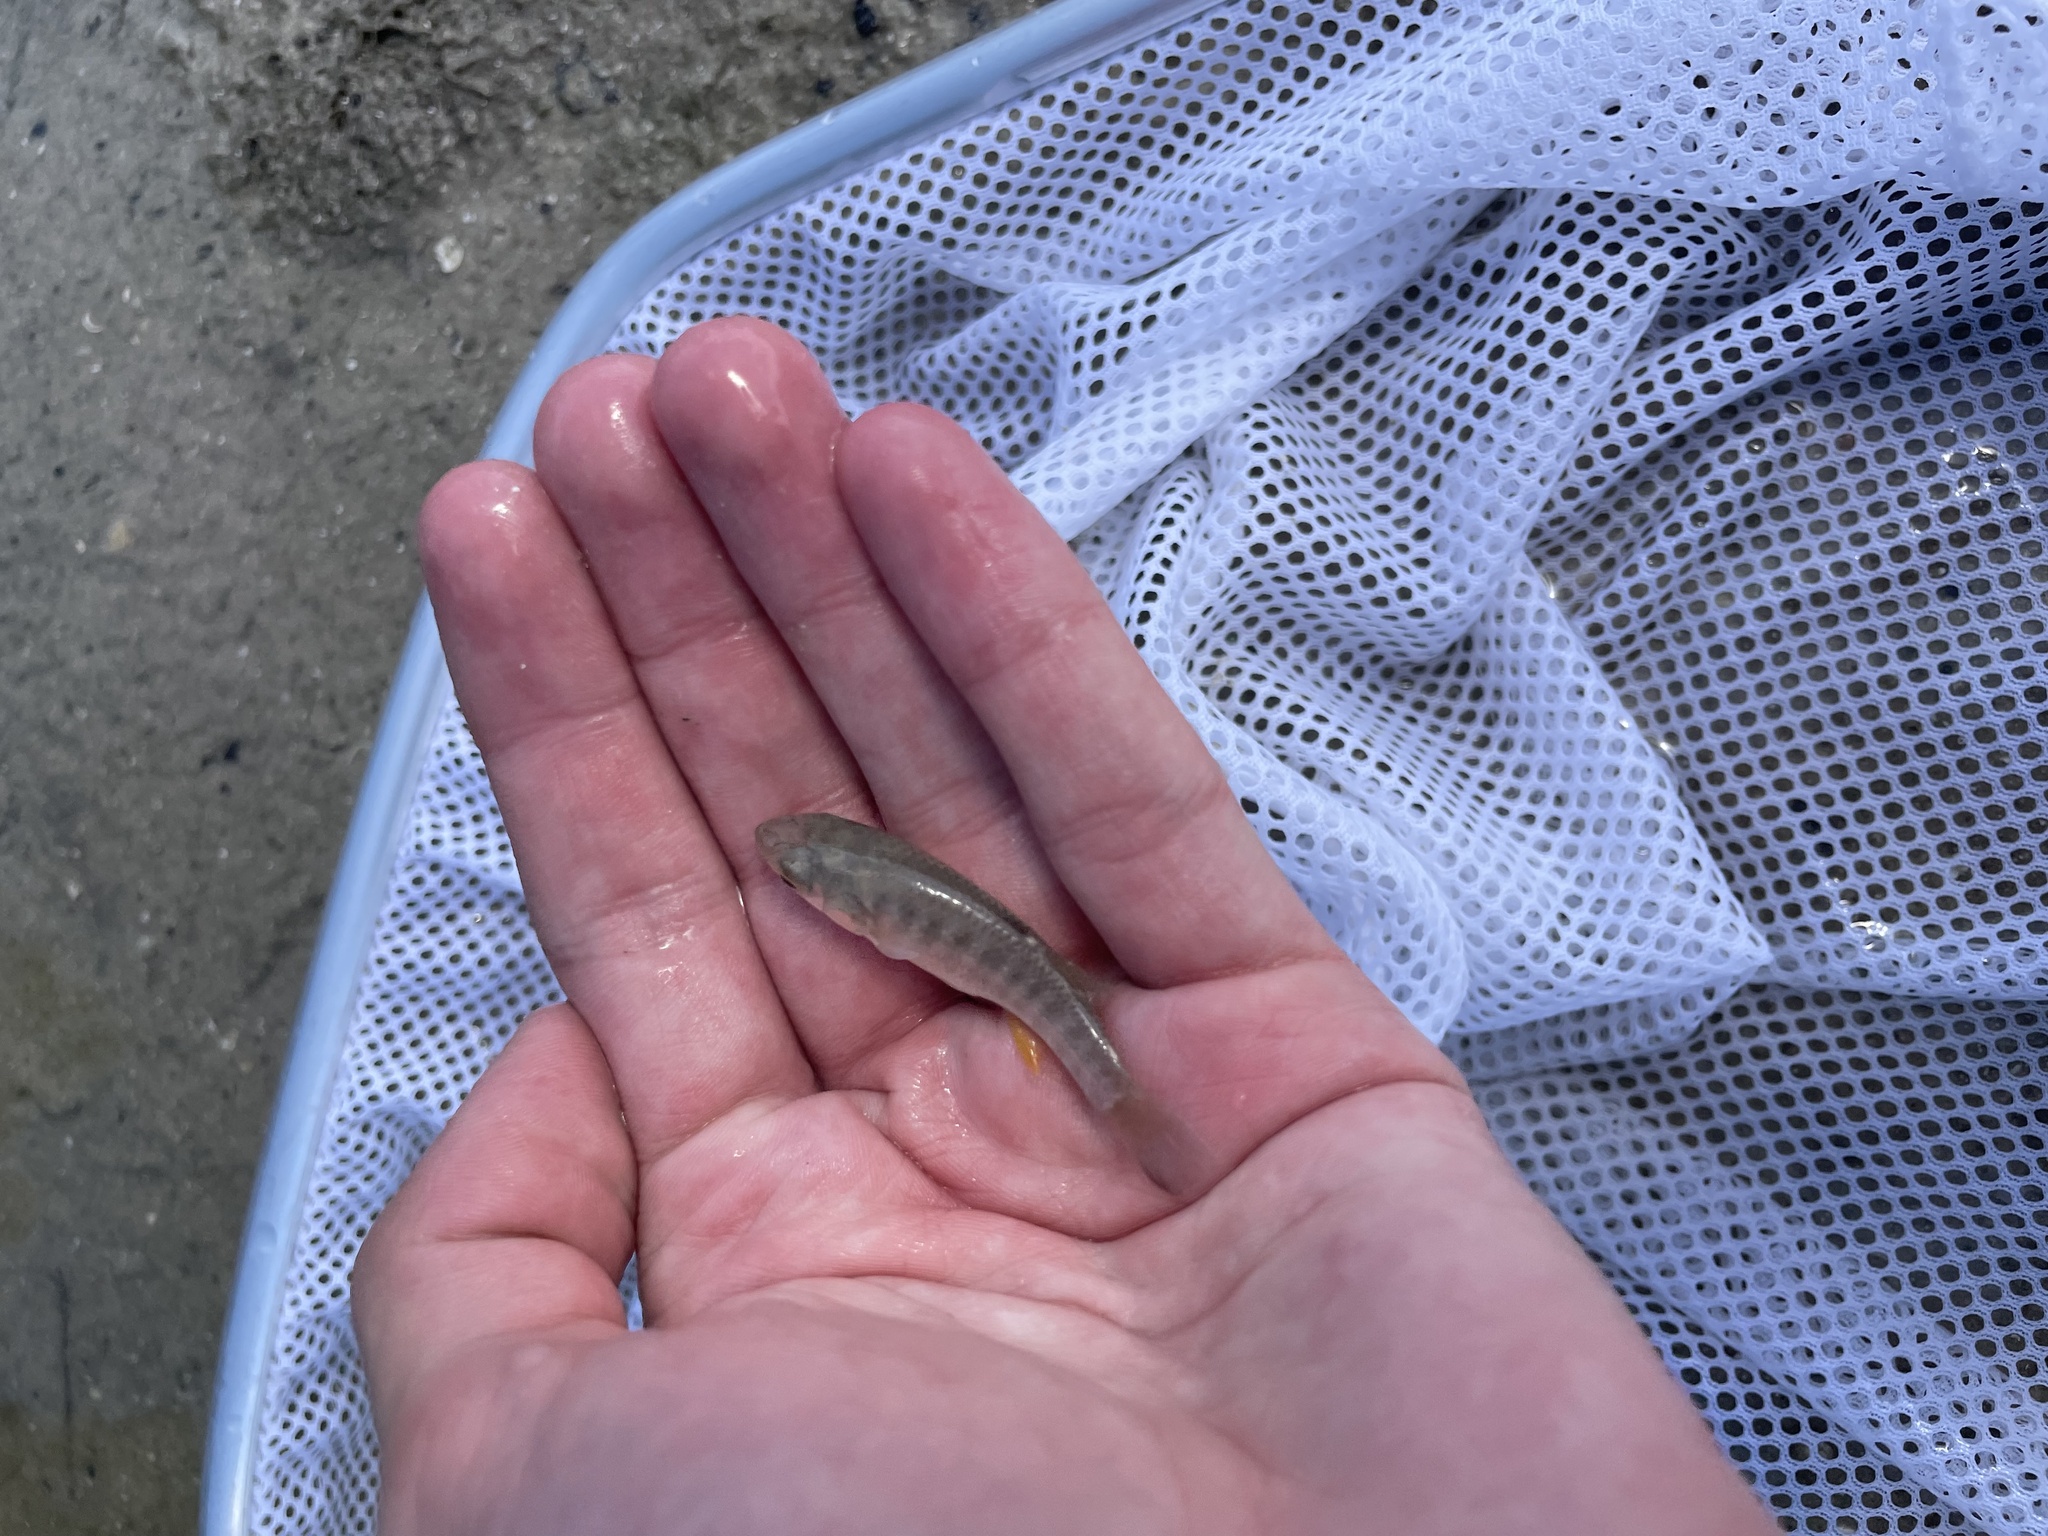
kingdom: Animalia
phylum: Chordata
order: Cyprinodontiformes
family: Fundulidae
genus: Fundulus
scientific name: Fundulus grandis
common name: Gulf killifish
